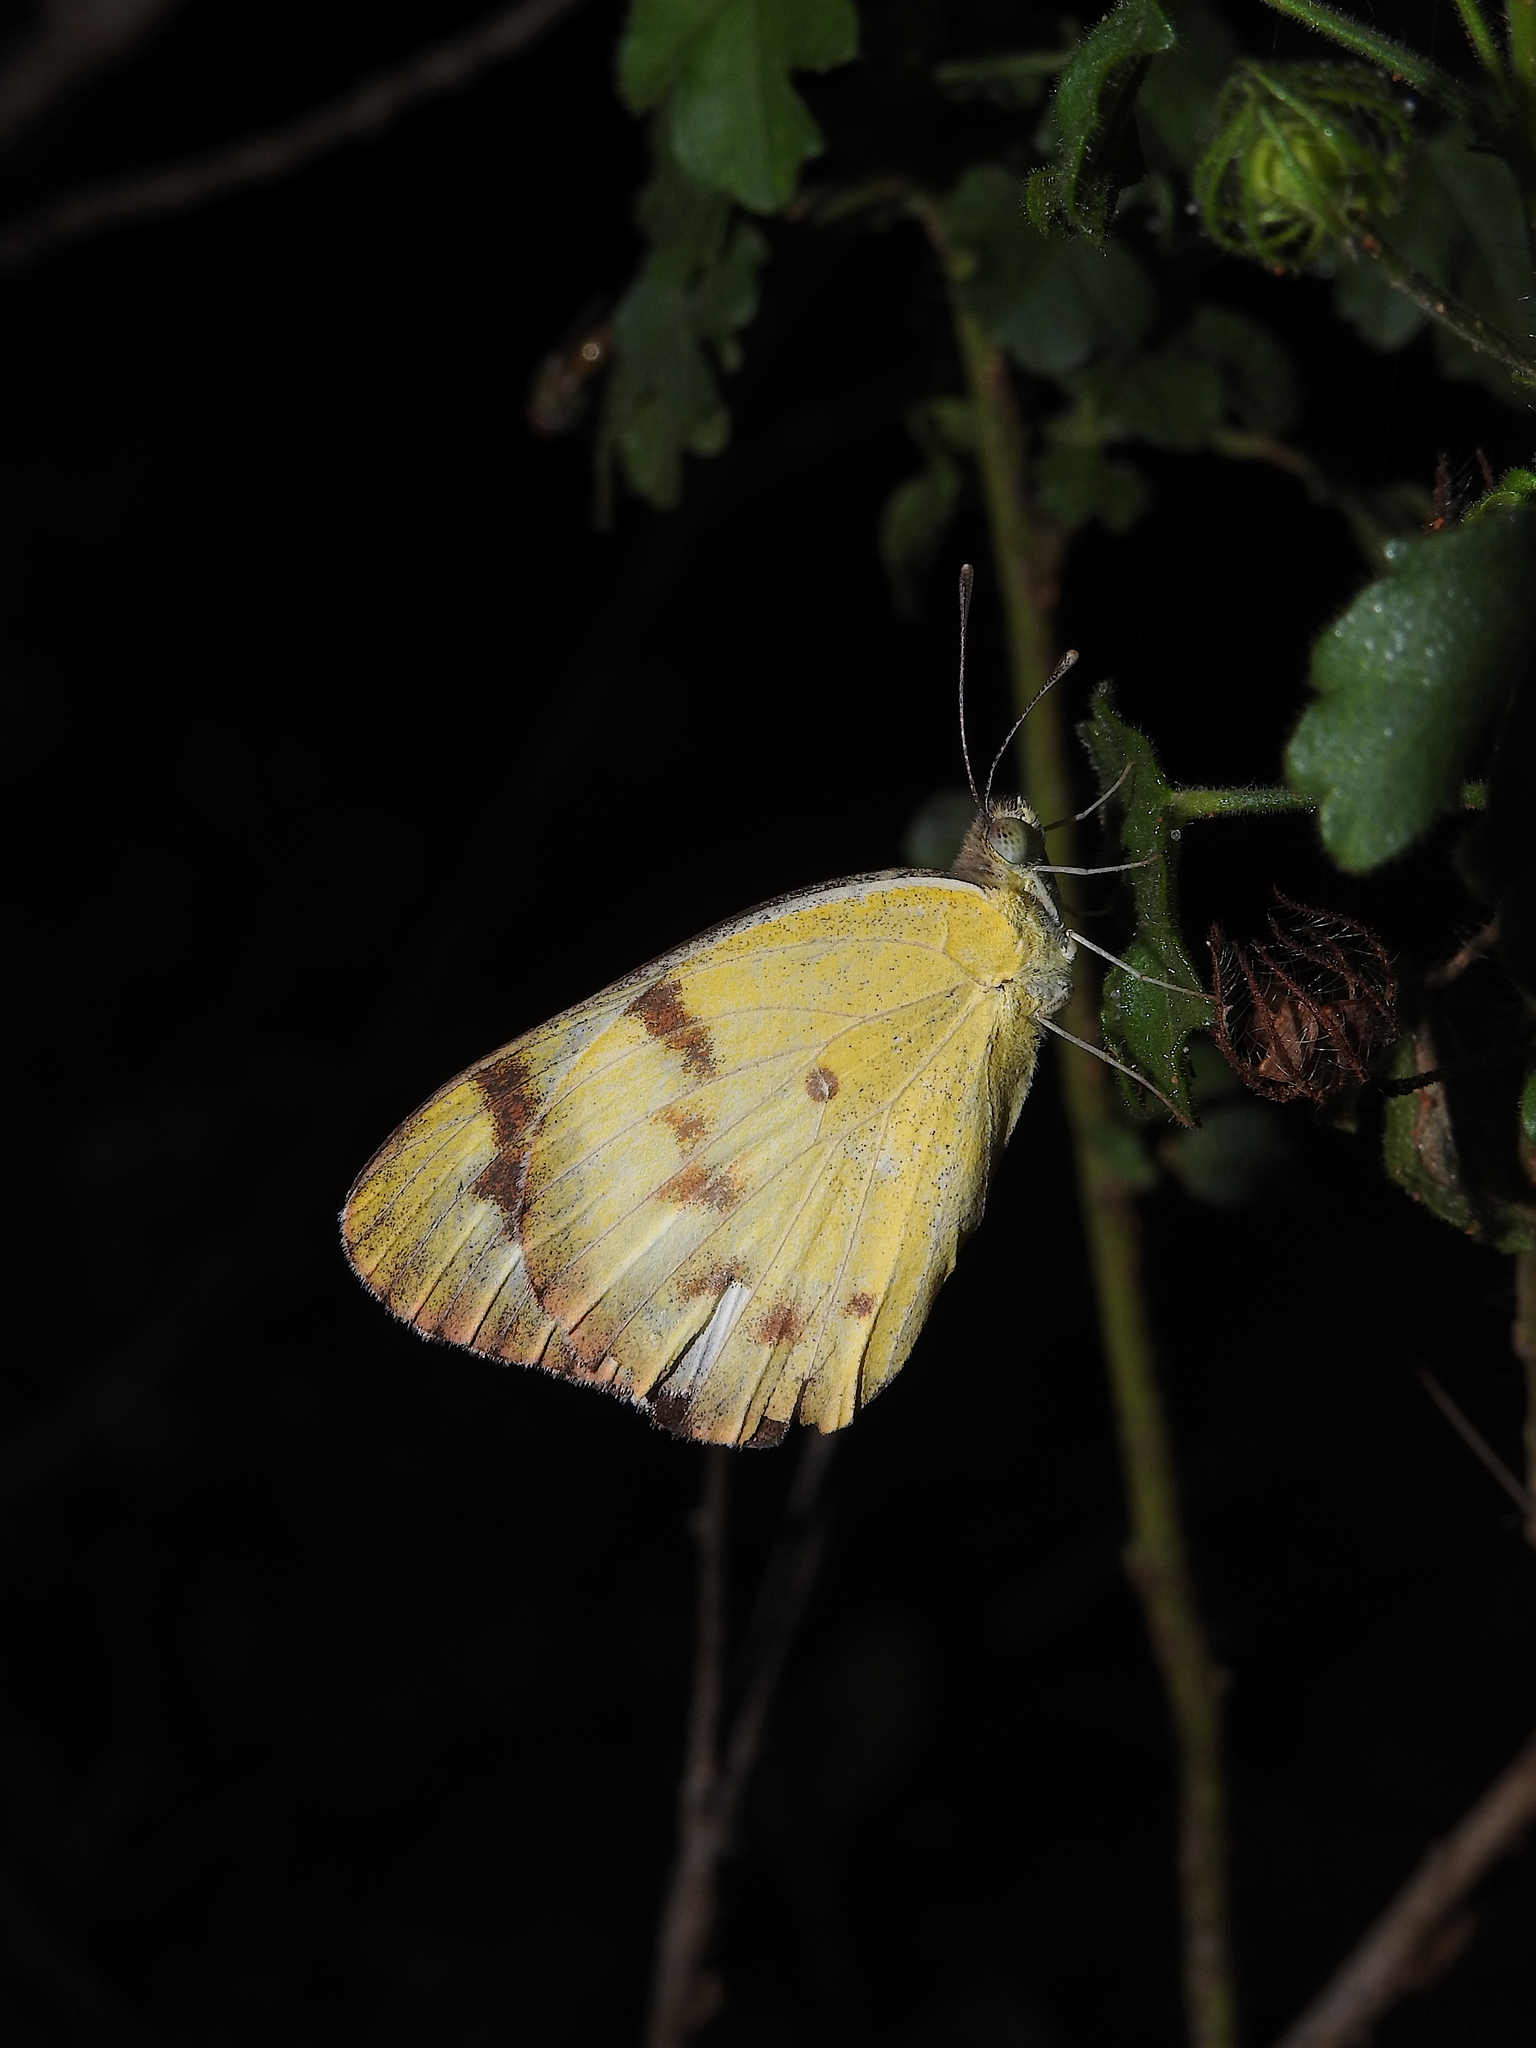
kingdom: Animalia
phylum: Arthropoda
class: Insecta
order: Lepidoptera
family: Pieridae
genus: Colotis
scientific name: Colotis fausta
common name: Large salmon arab
